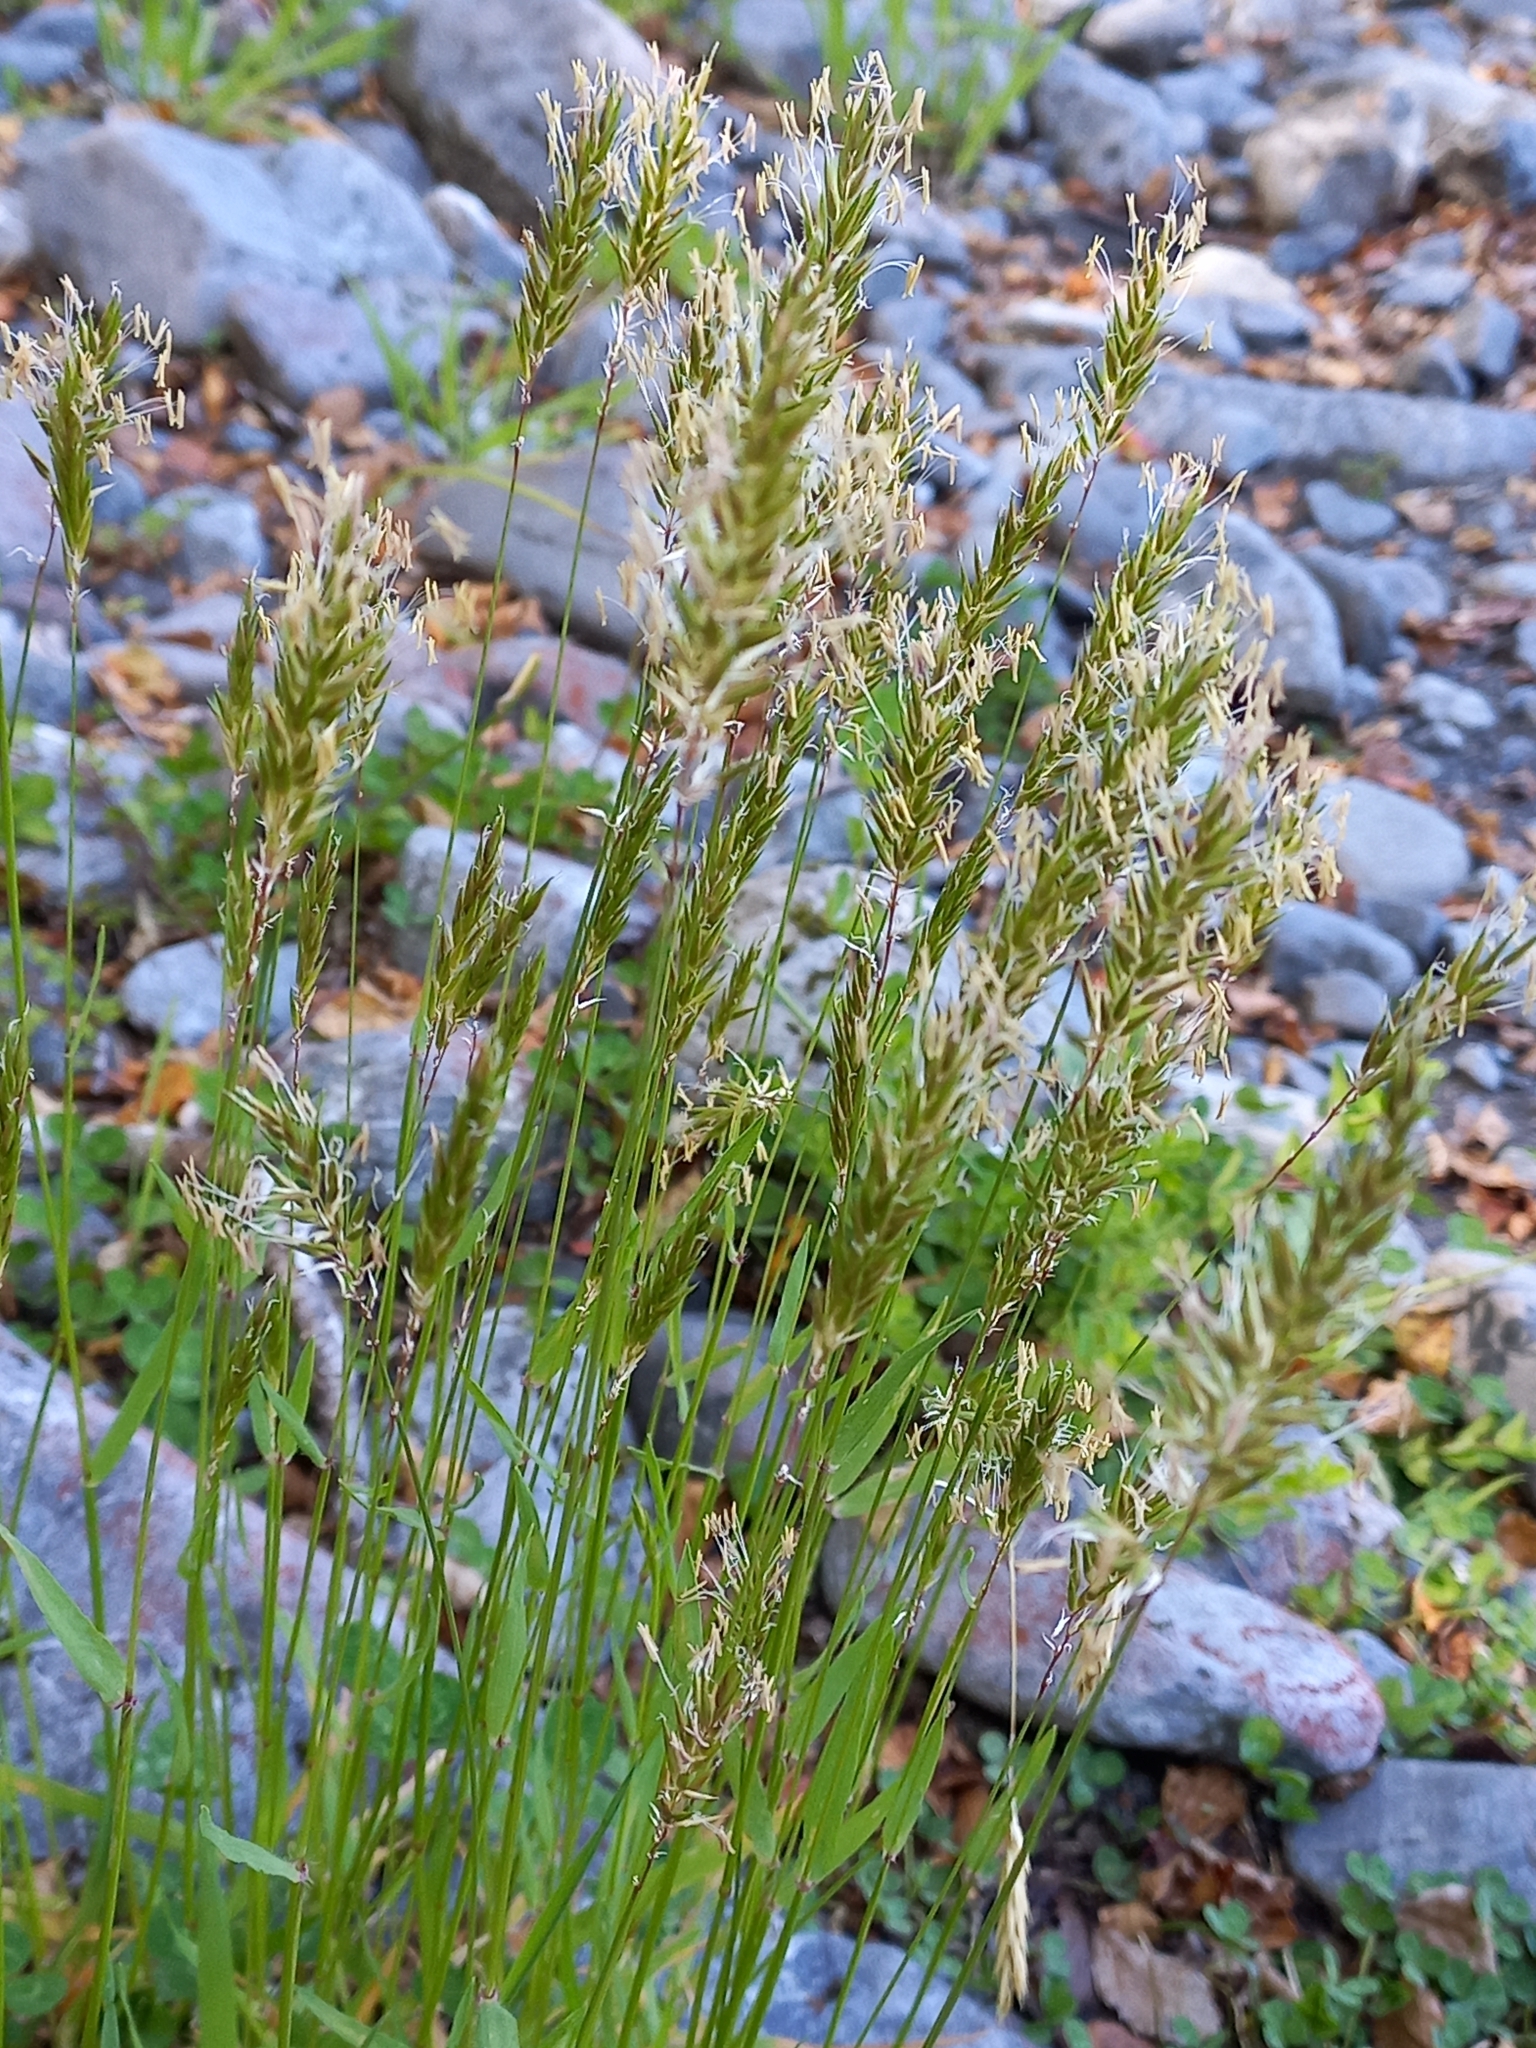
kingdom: Plantae
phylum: Tracheophyta
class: Liliopsida
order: Poales
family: Poaceae
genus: Anthoxanthum
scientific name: Anthoxanthum odoratum
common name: Sweet vernalgrass
